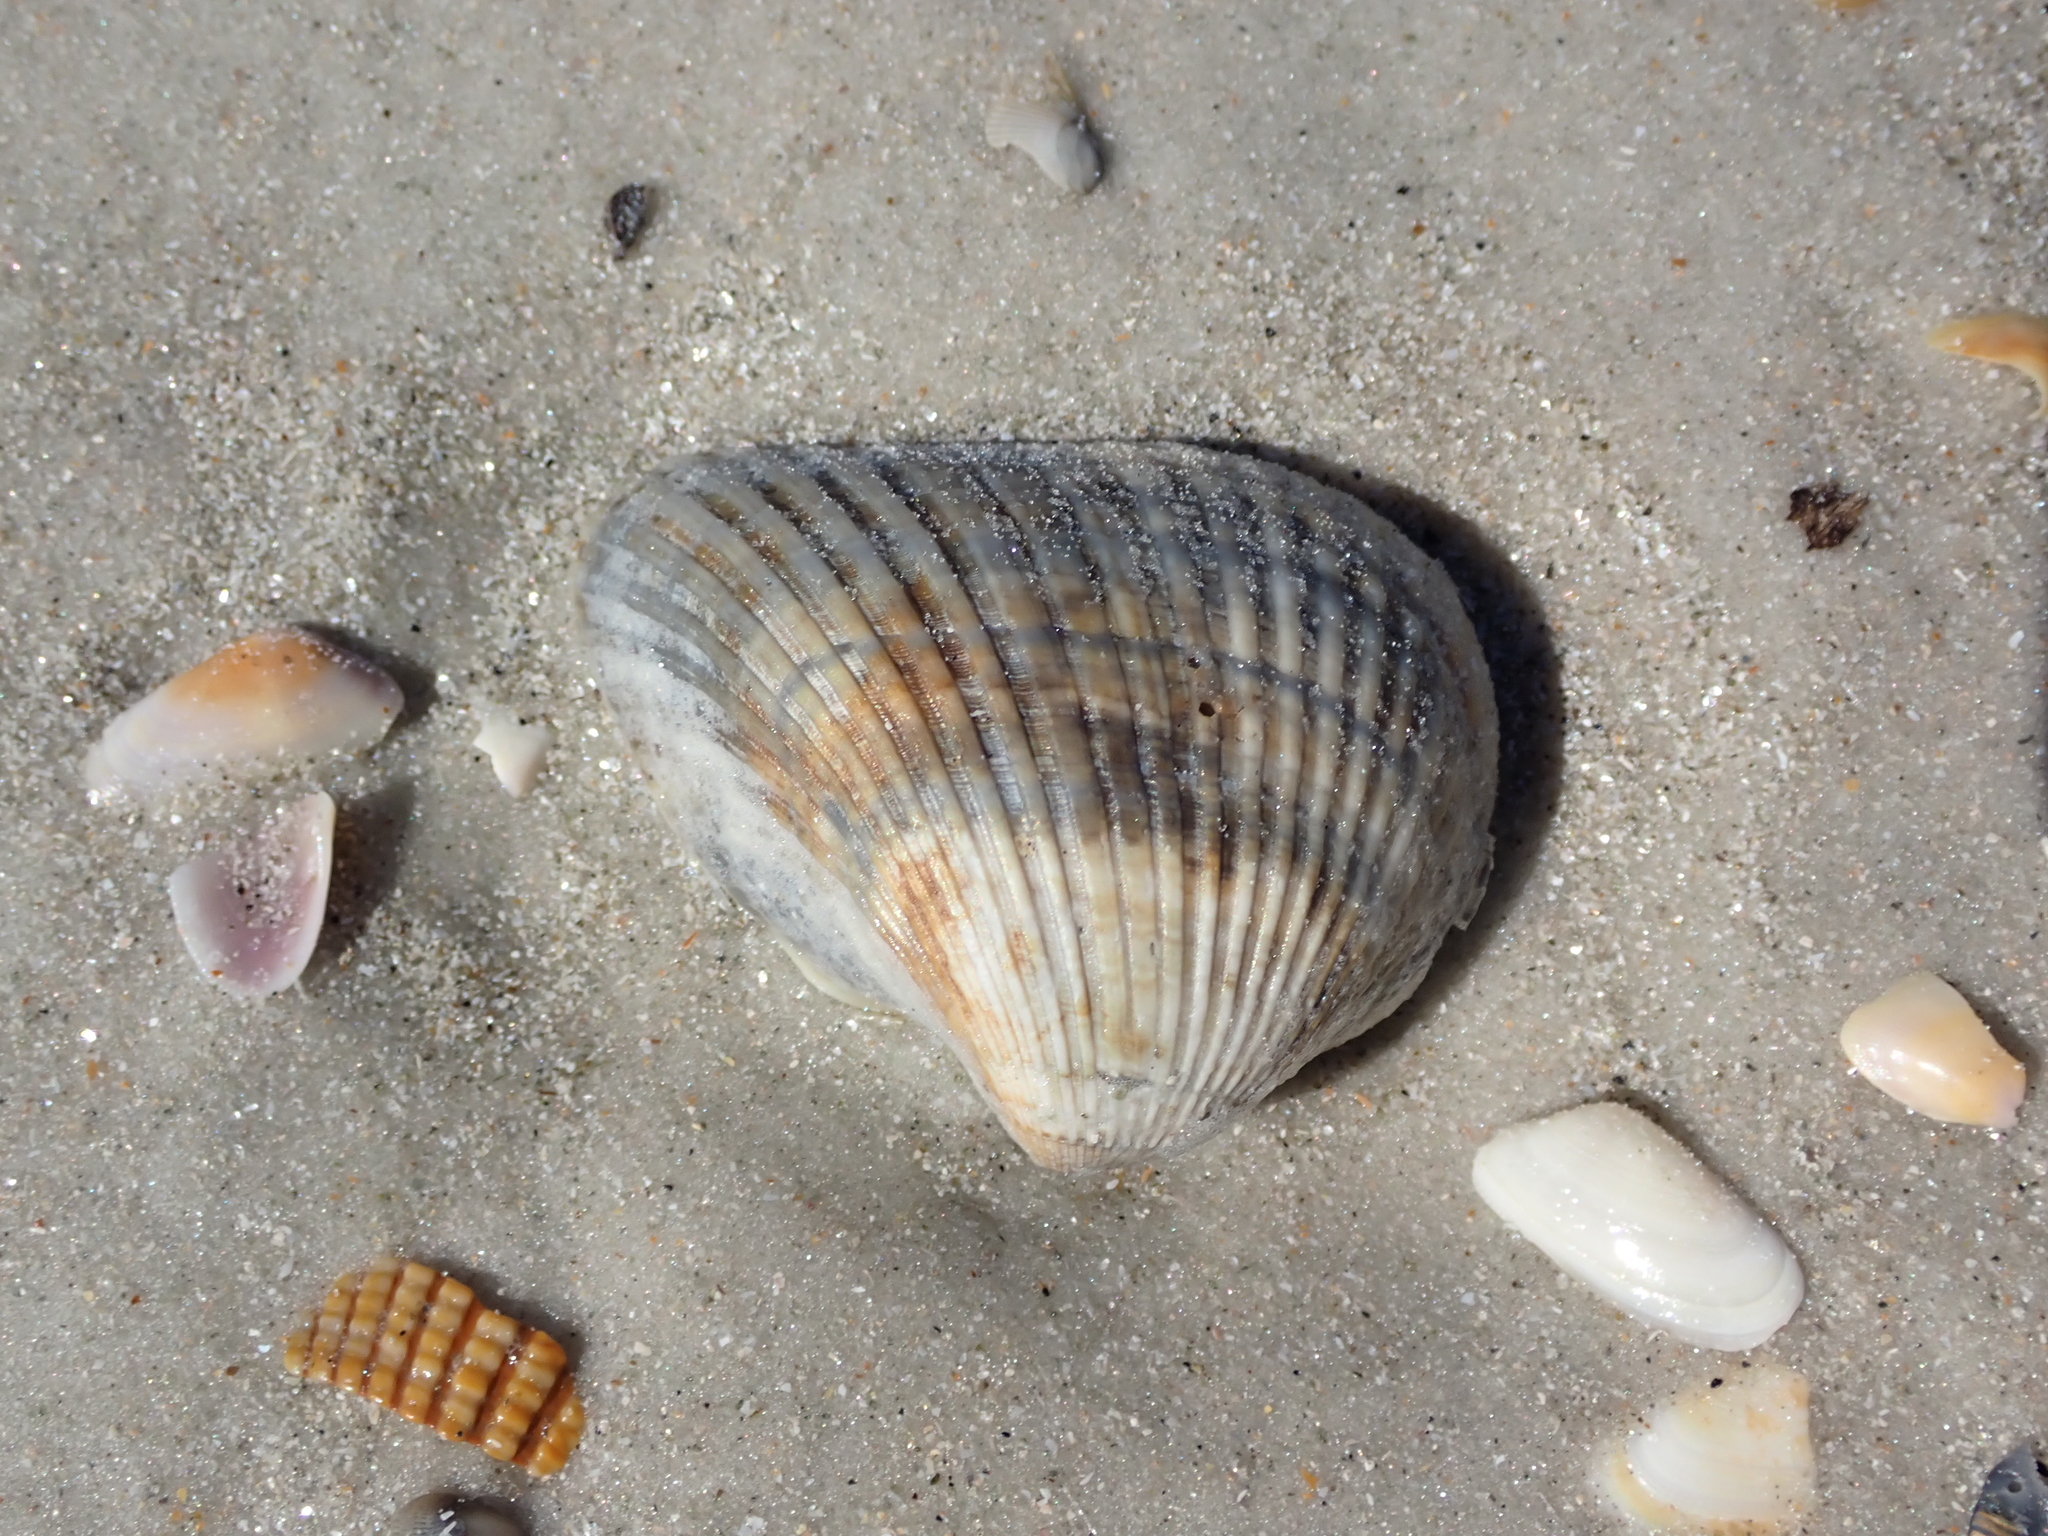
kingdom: Animalia
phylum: Mollusca
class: Bivalvia
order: Arcida
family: Noetiidae
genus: Noetia
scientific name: Noetia ponderosa
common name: Ponderous ark
